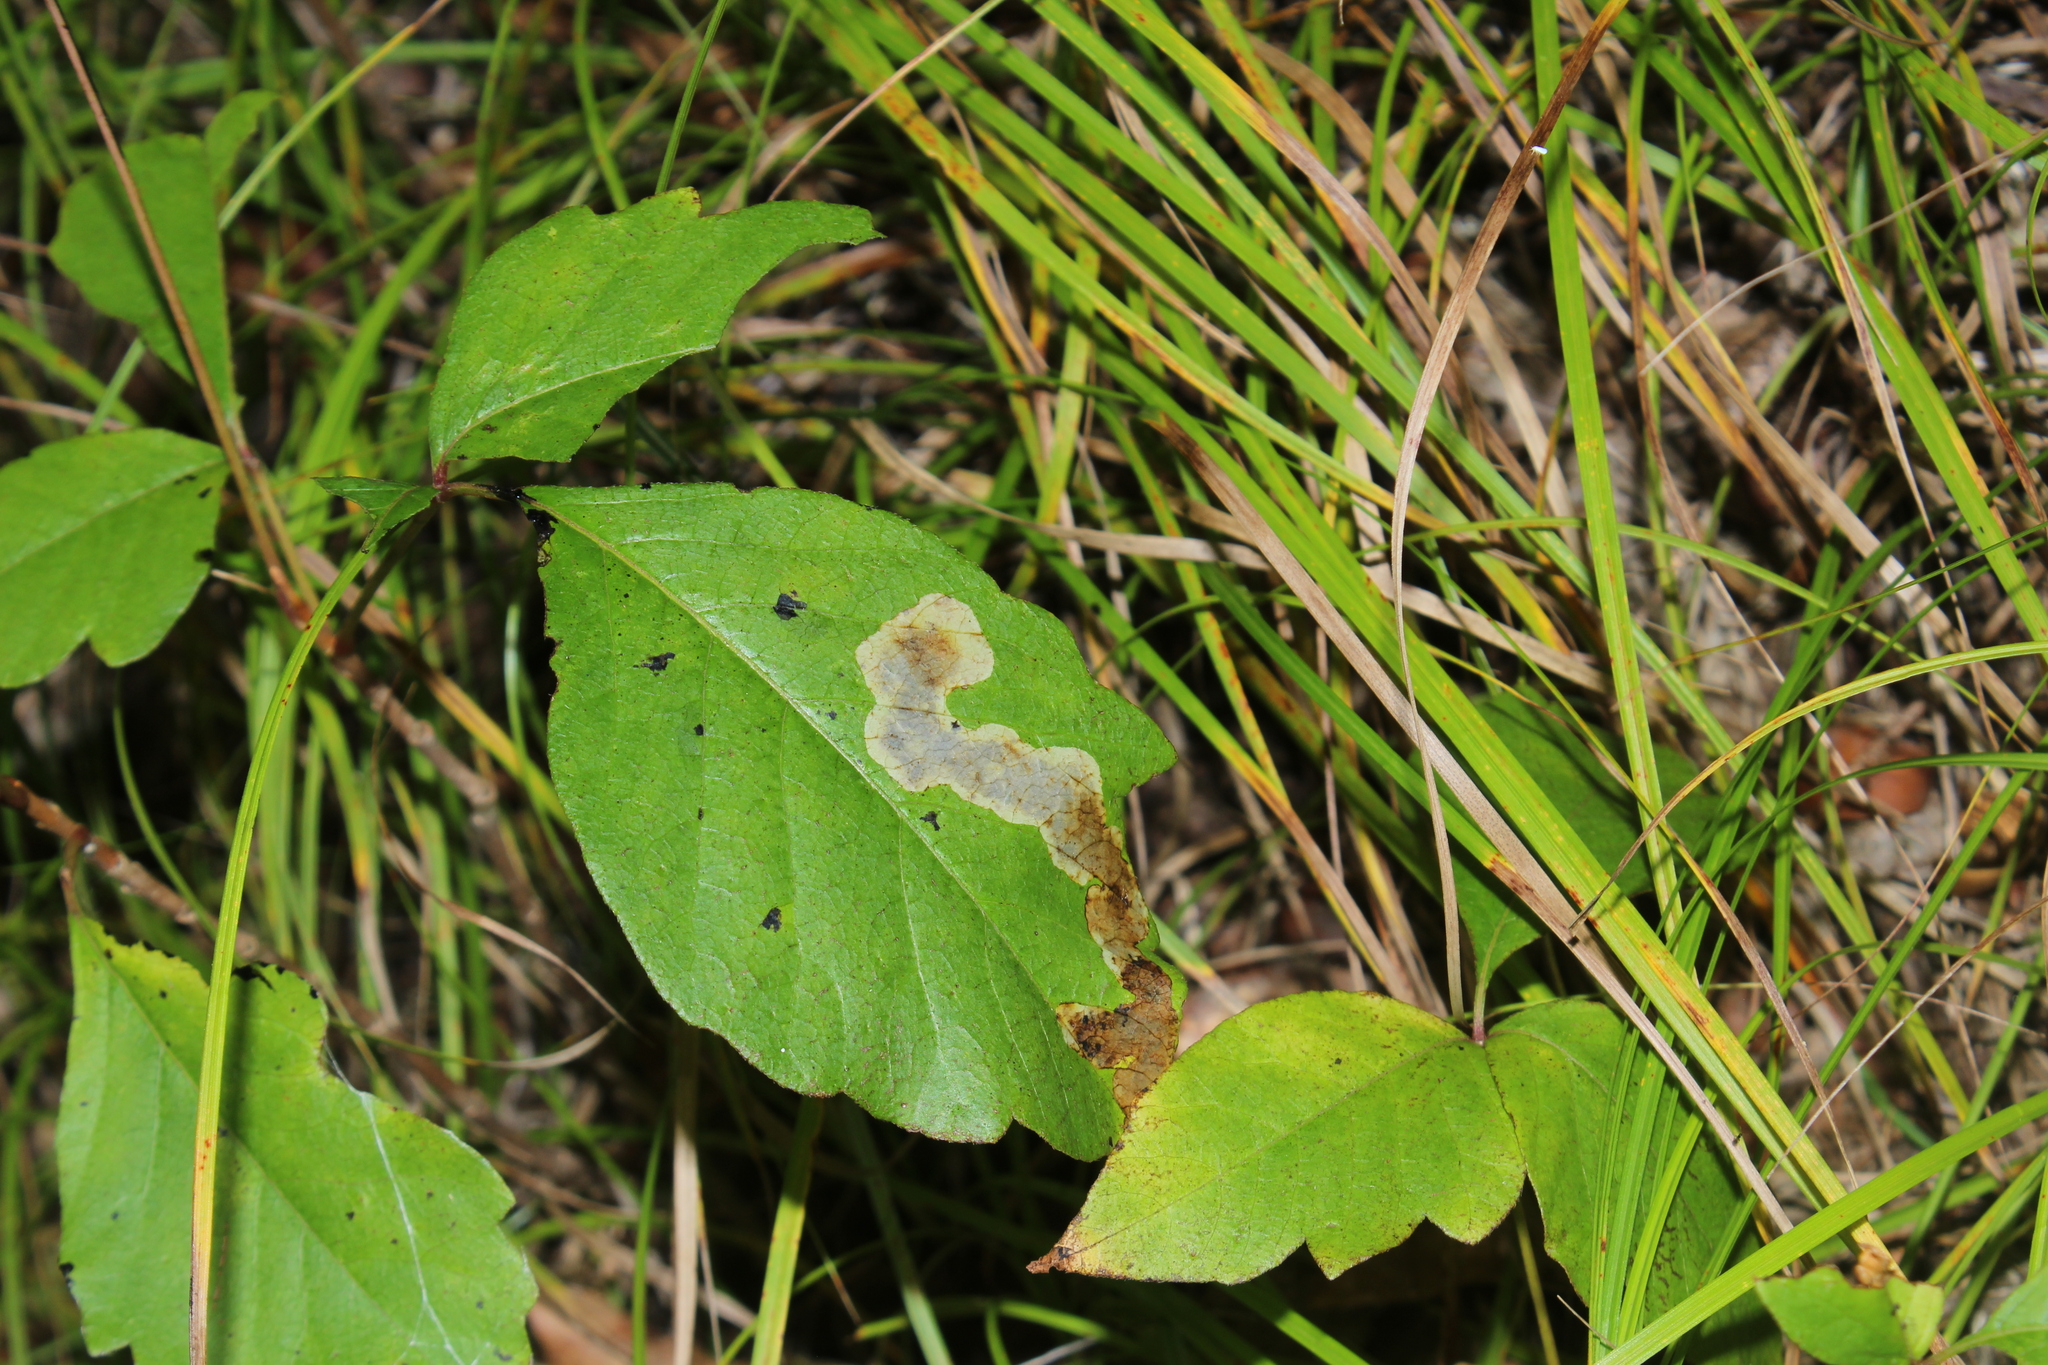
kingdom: Animalia
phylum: Arthropoda
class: Insecta
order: Lepidoptera
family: Gracillariidae
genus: Cameraria
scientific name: Cameraria guttifinitella
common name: Poison ivy leaf-miner moth
